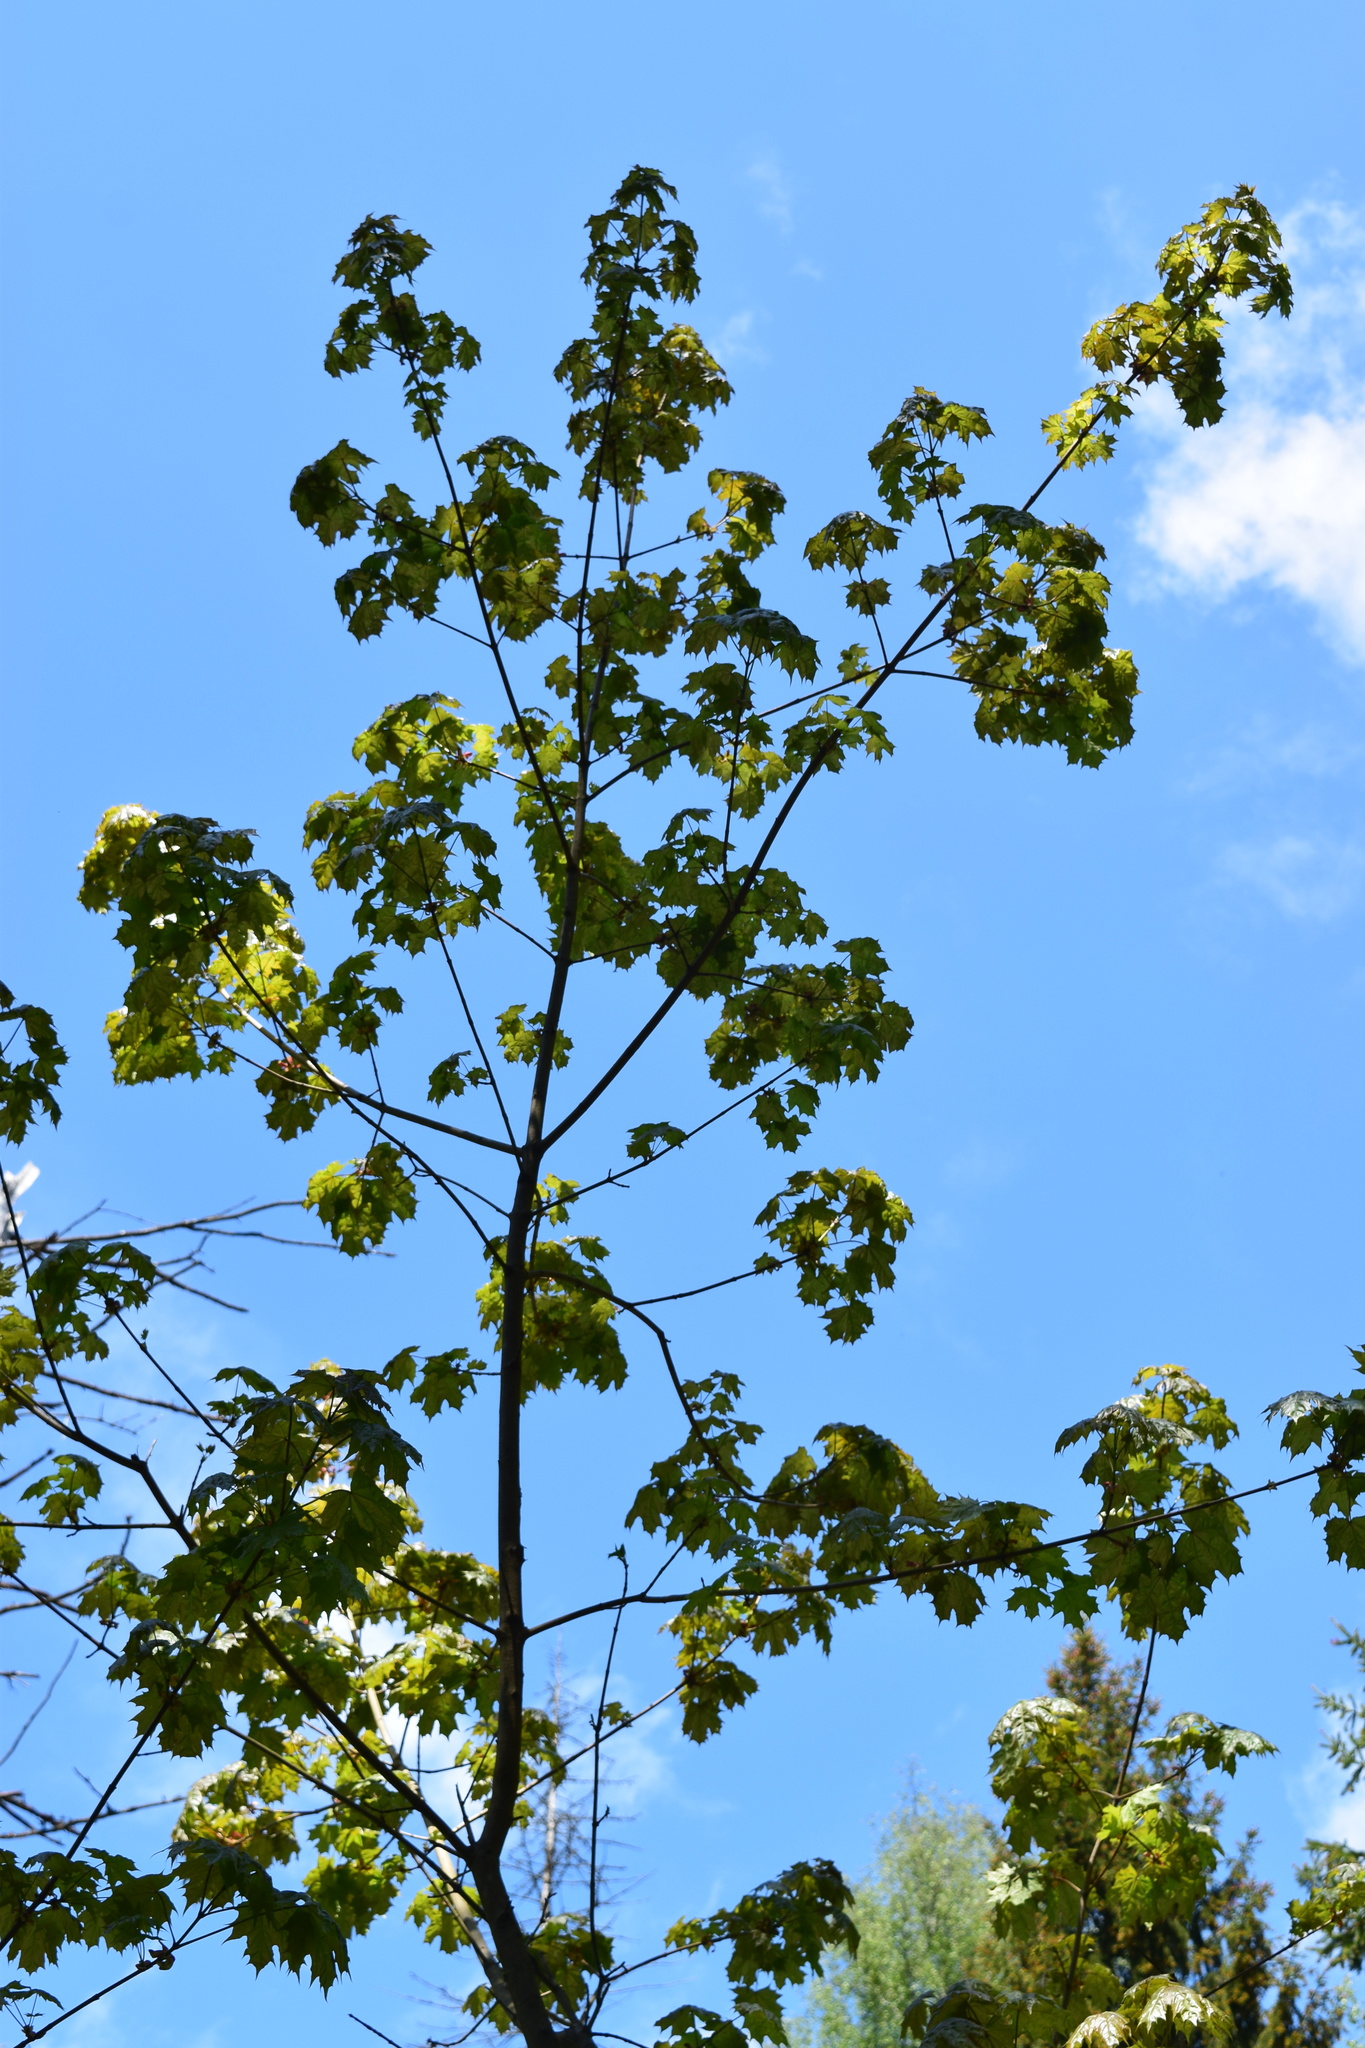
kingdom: Plantae
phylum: Tracheophyta
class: Magnoliopsida
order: Sapindales
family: Sapindaceae
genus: Acer
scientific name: Acer platanoides
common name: Norway maple
